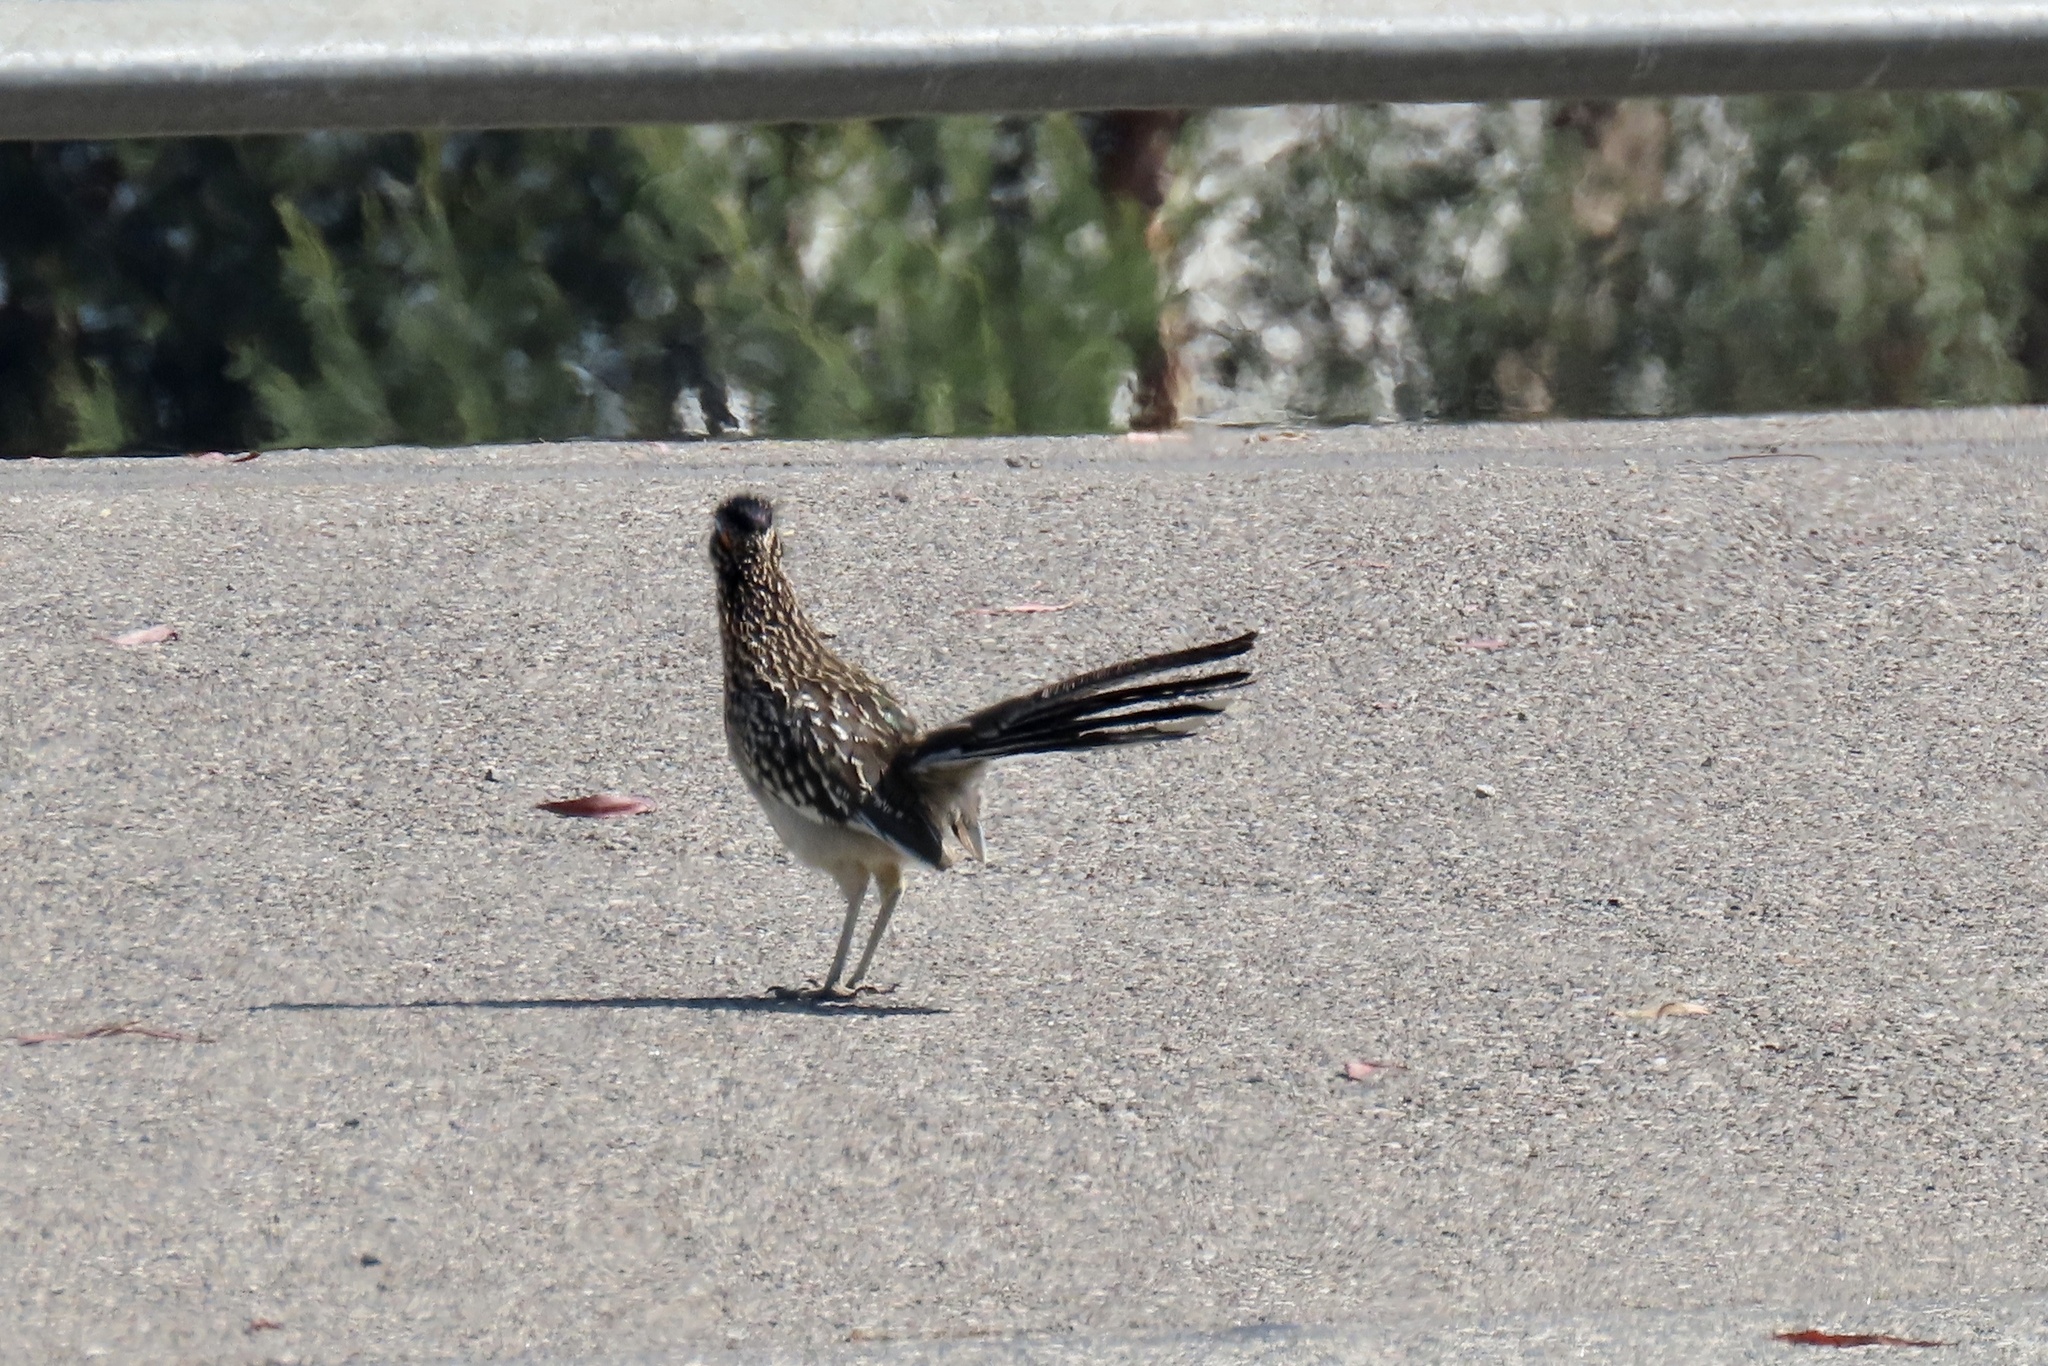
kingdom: Animalia
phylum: Chordata
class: Aves
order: Cuculiformes
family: Cuculidae
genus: Geococcyx
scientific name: Geococcyx californianus
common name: Greater roadrunner
